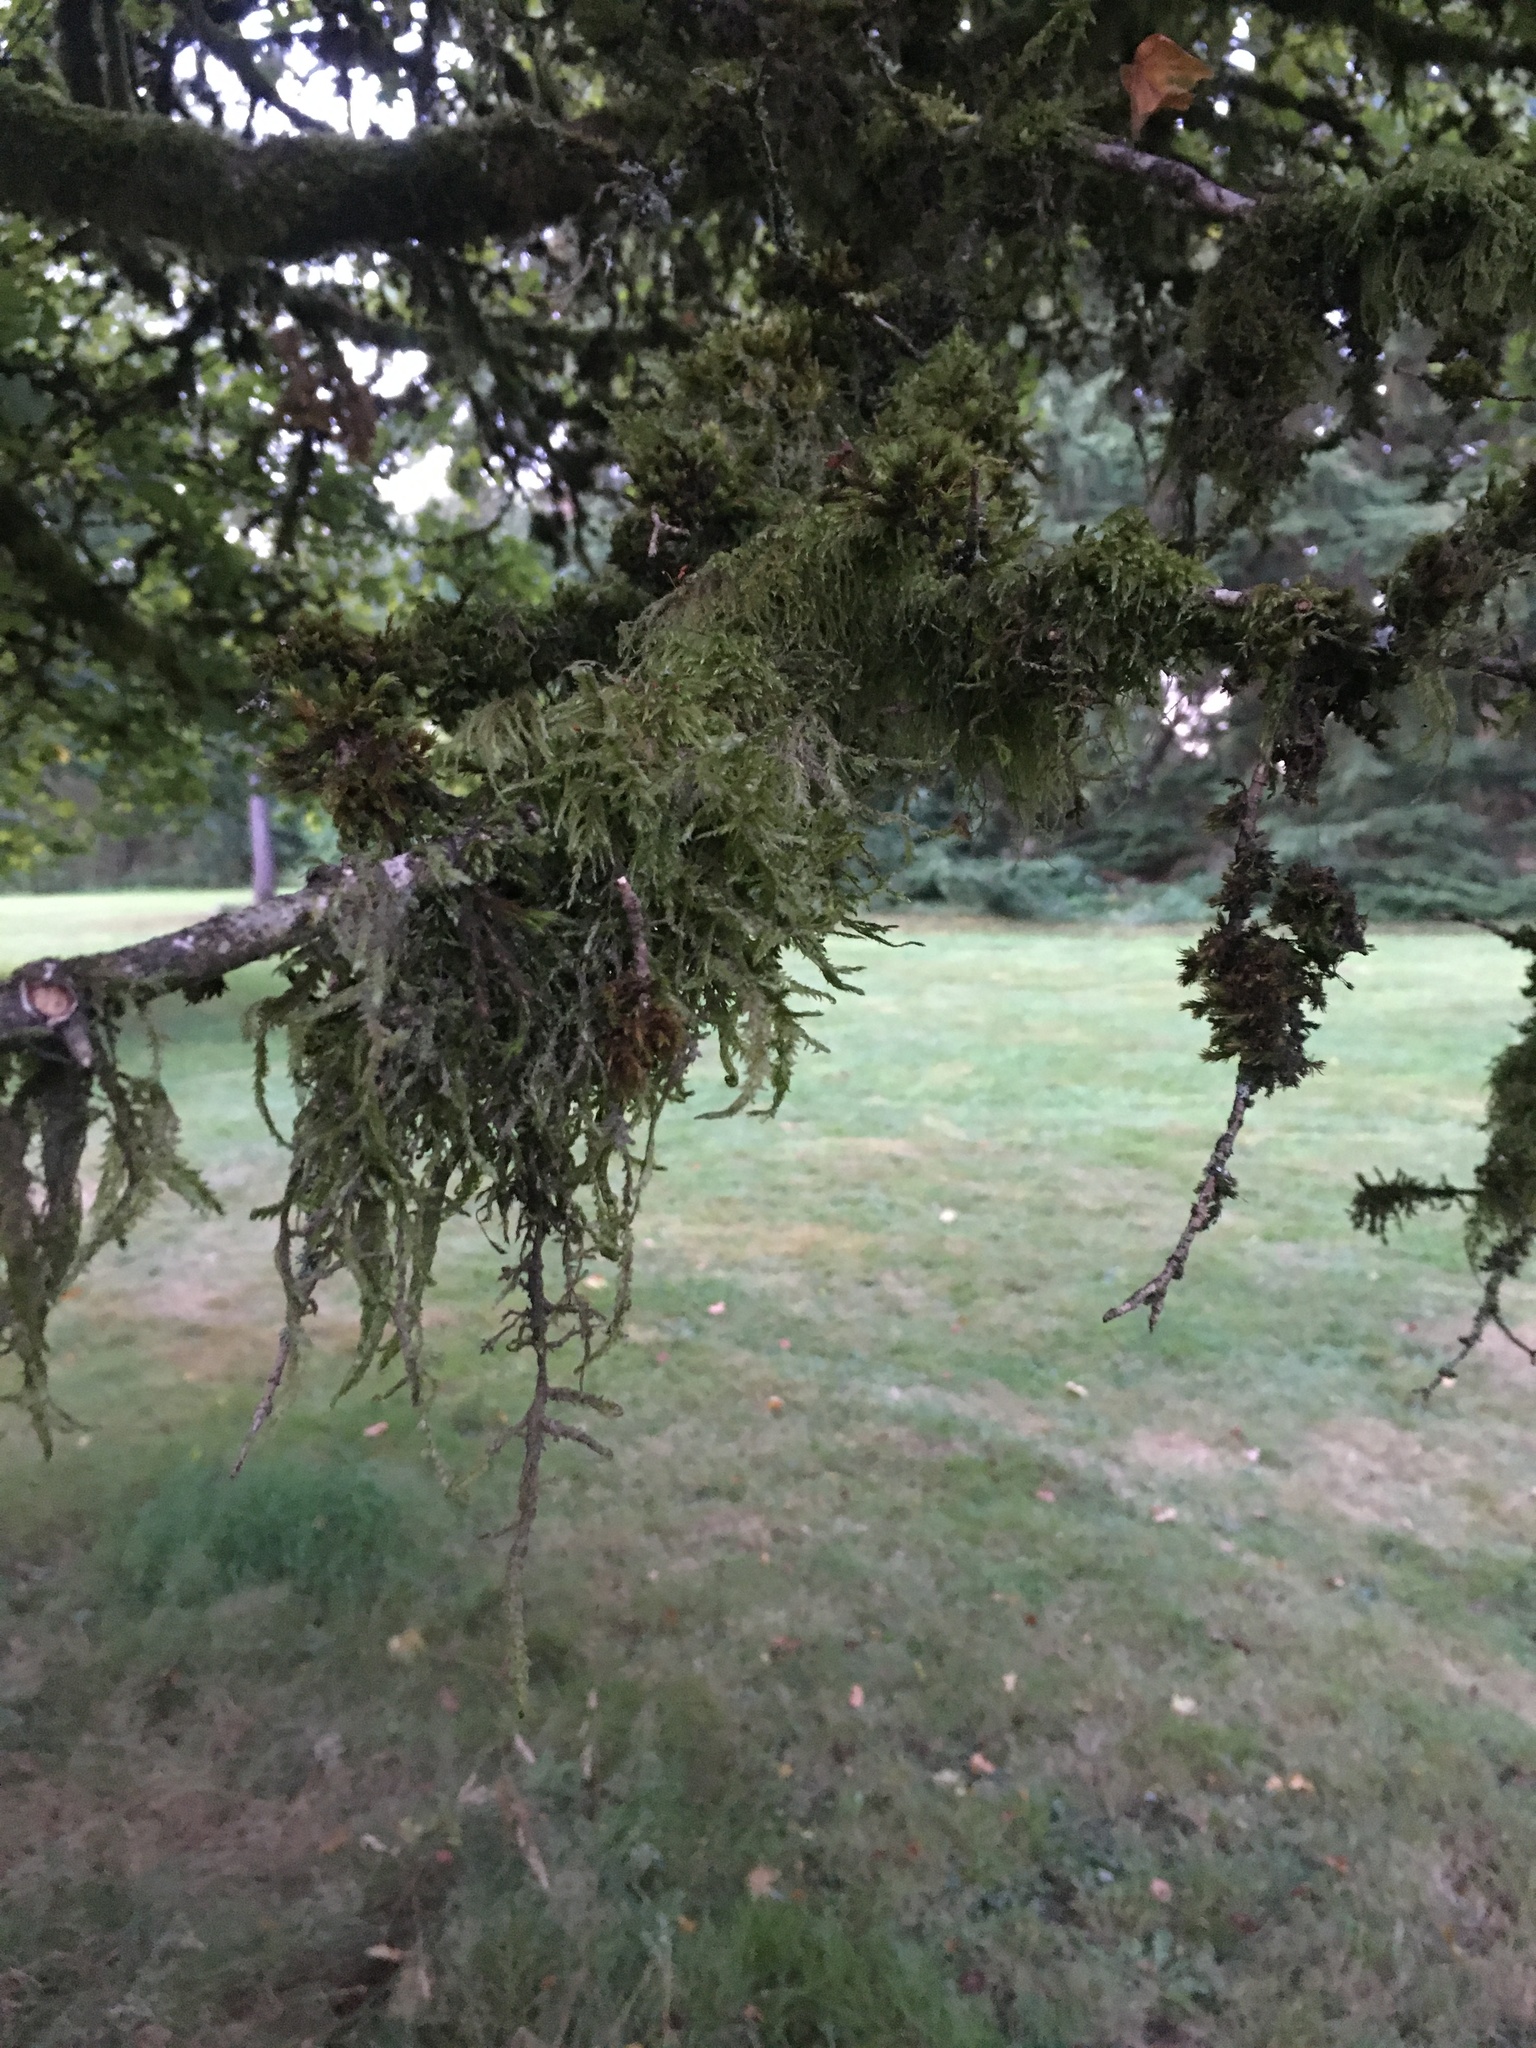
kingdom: Plantae
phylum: Bryophyta
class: Bryopsida
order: Hypnales
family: Neckeraceae
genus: Neckera
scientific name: Neckera douglasii
